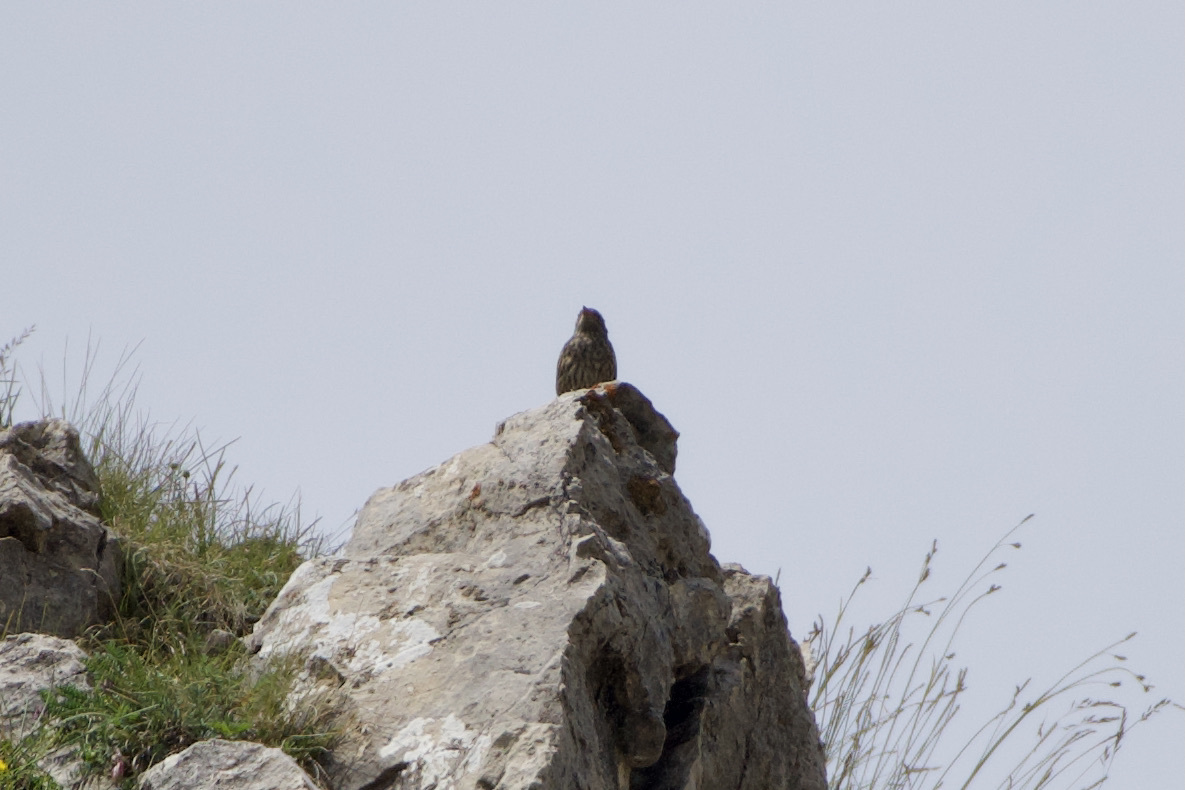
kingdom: Animalia
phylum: Chordata
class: Aves
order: Passeriformes
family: Prunellidae
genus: Prunella
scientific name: Prunella collaris
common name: Alpine accentor
